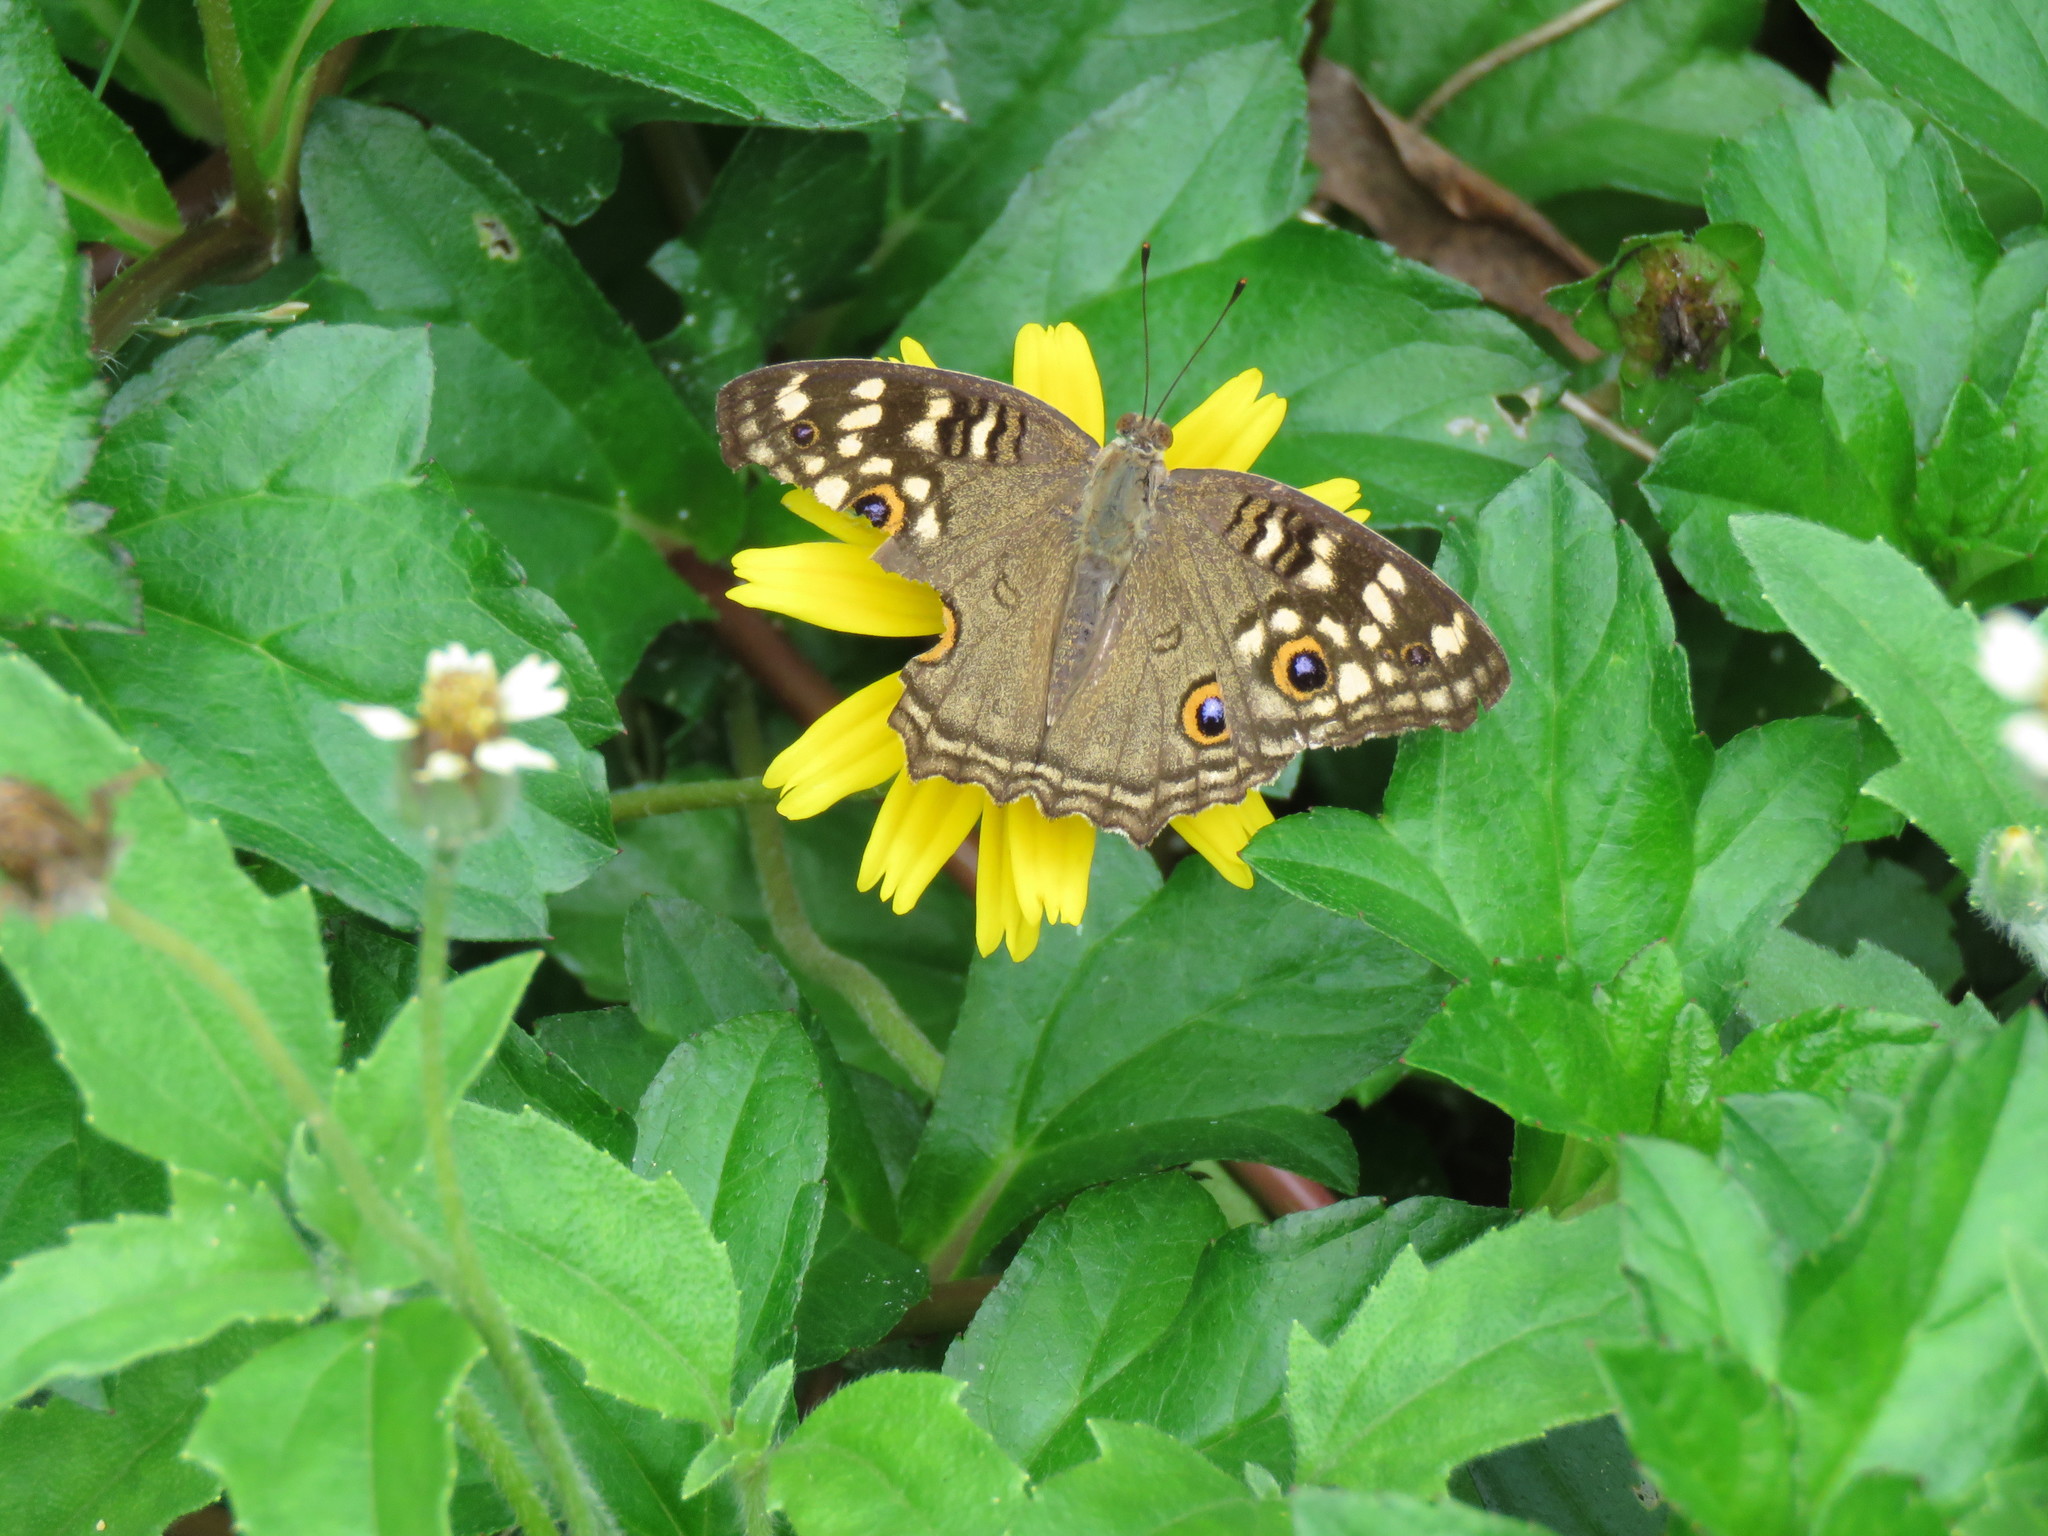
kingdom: Animalia
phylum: Arthropoda
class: Insecta
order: Lepidoptera
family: Nymphalidae
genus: Junonia
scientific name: Junonia lemonias
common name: Lemon pansy
